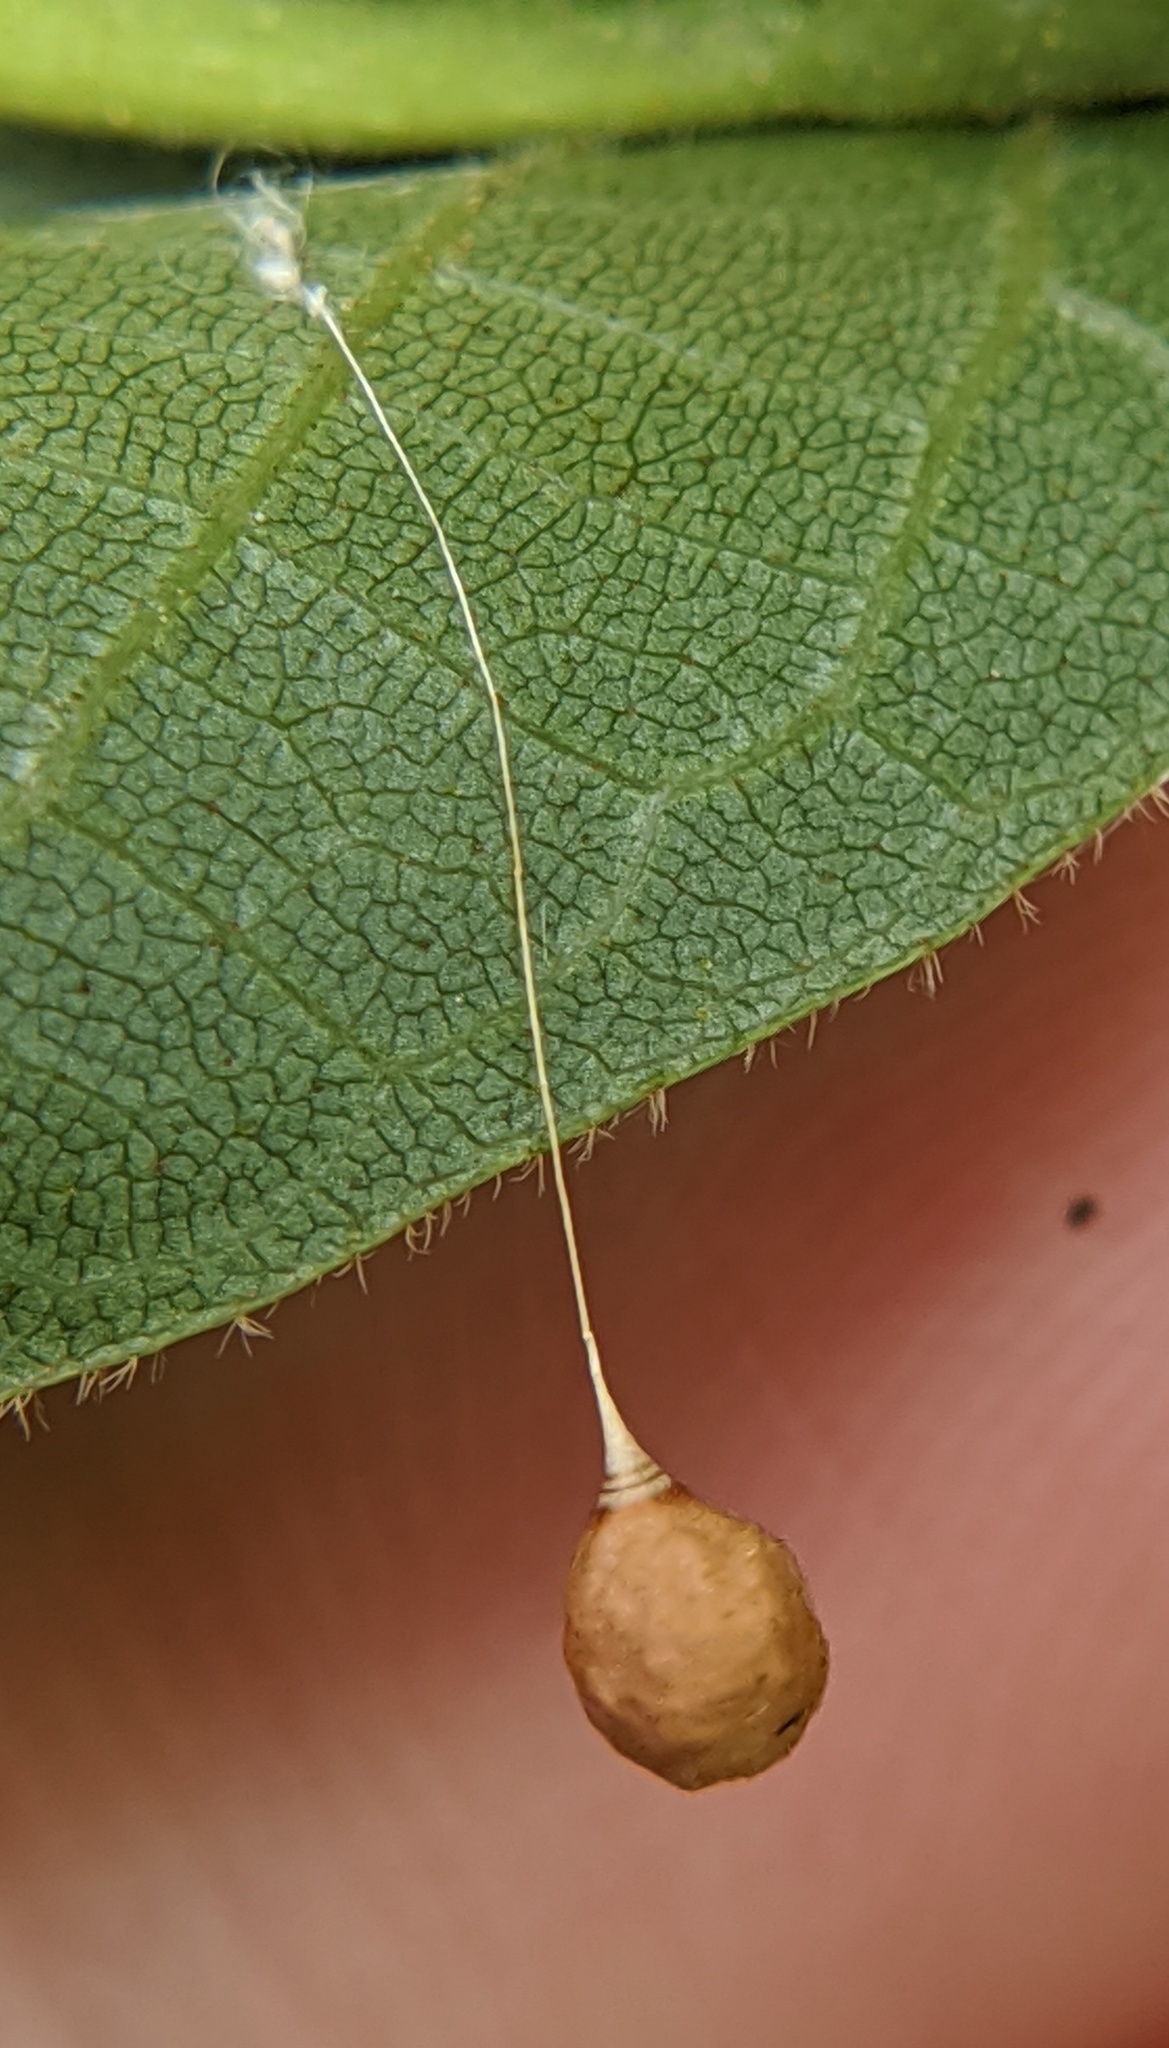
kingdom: Animalia
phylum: Arthropoda
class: Arachnida
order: Araneae
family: Theridiosomatidae
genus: Theridiosoma
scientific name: Theridiosoma gemmosum
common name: Ray spider
